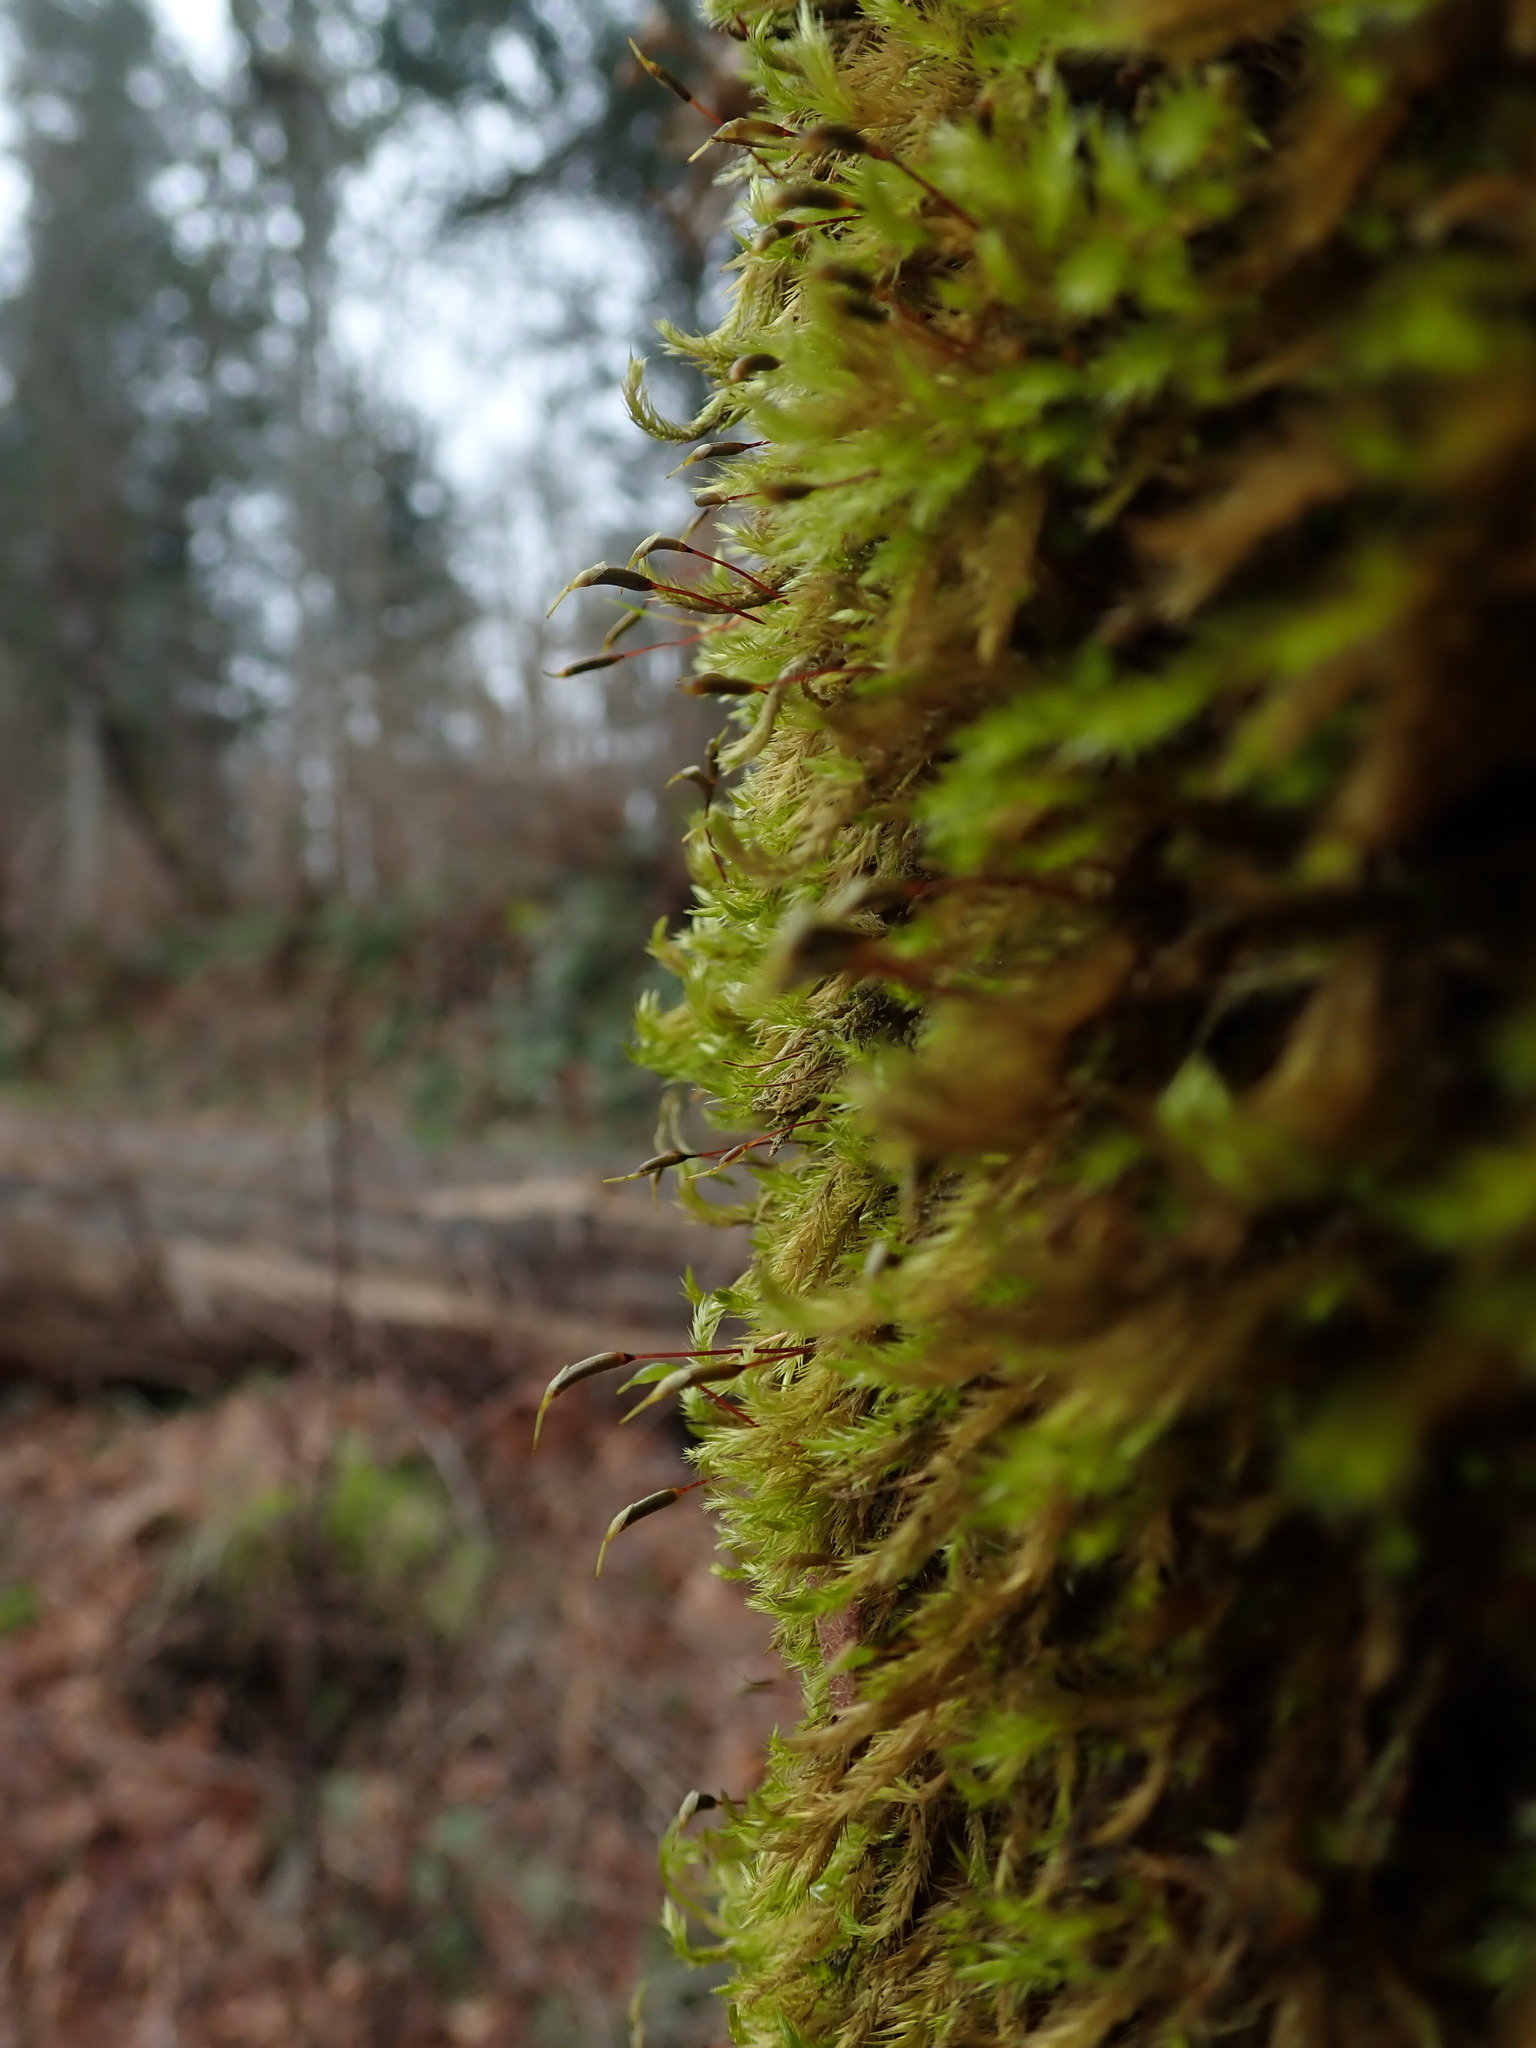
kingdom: Plantae
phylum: Bryophyta
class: Bryopsida
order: Hypnales
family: Brachytheciaceae
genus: Homalothecium
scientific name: Homalothecium fulgescens
